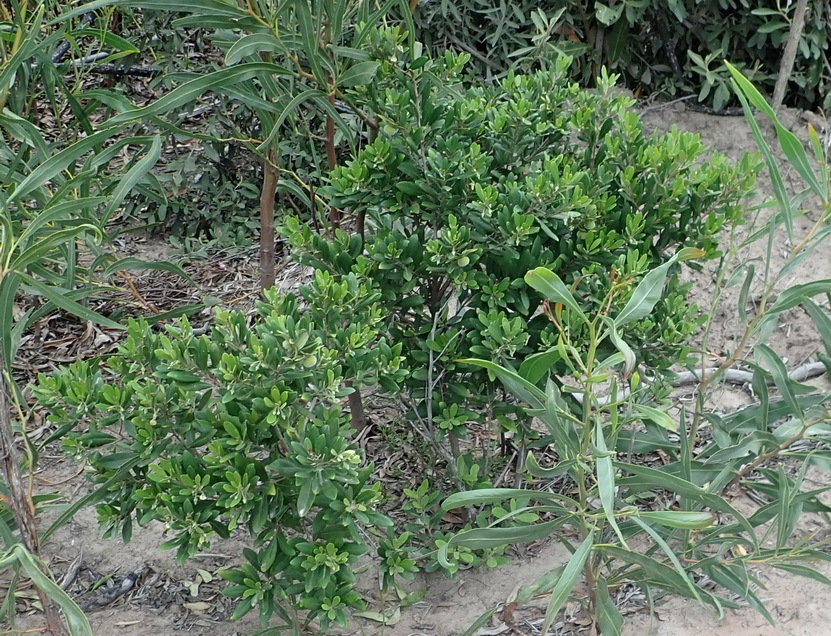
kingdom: Plantae
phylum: Tracheophyta
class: Magnoliopsida
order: Ericales
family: Ebenaceae
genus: Diospyros
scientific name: Diospyros dichrophylla
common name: Common star-apple
